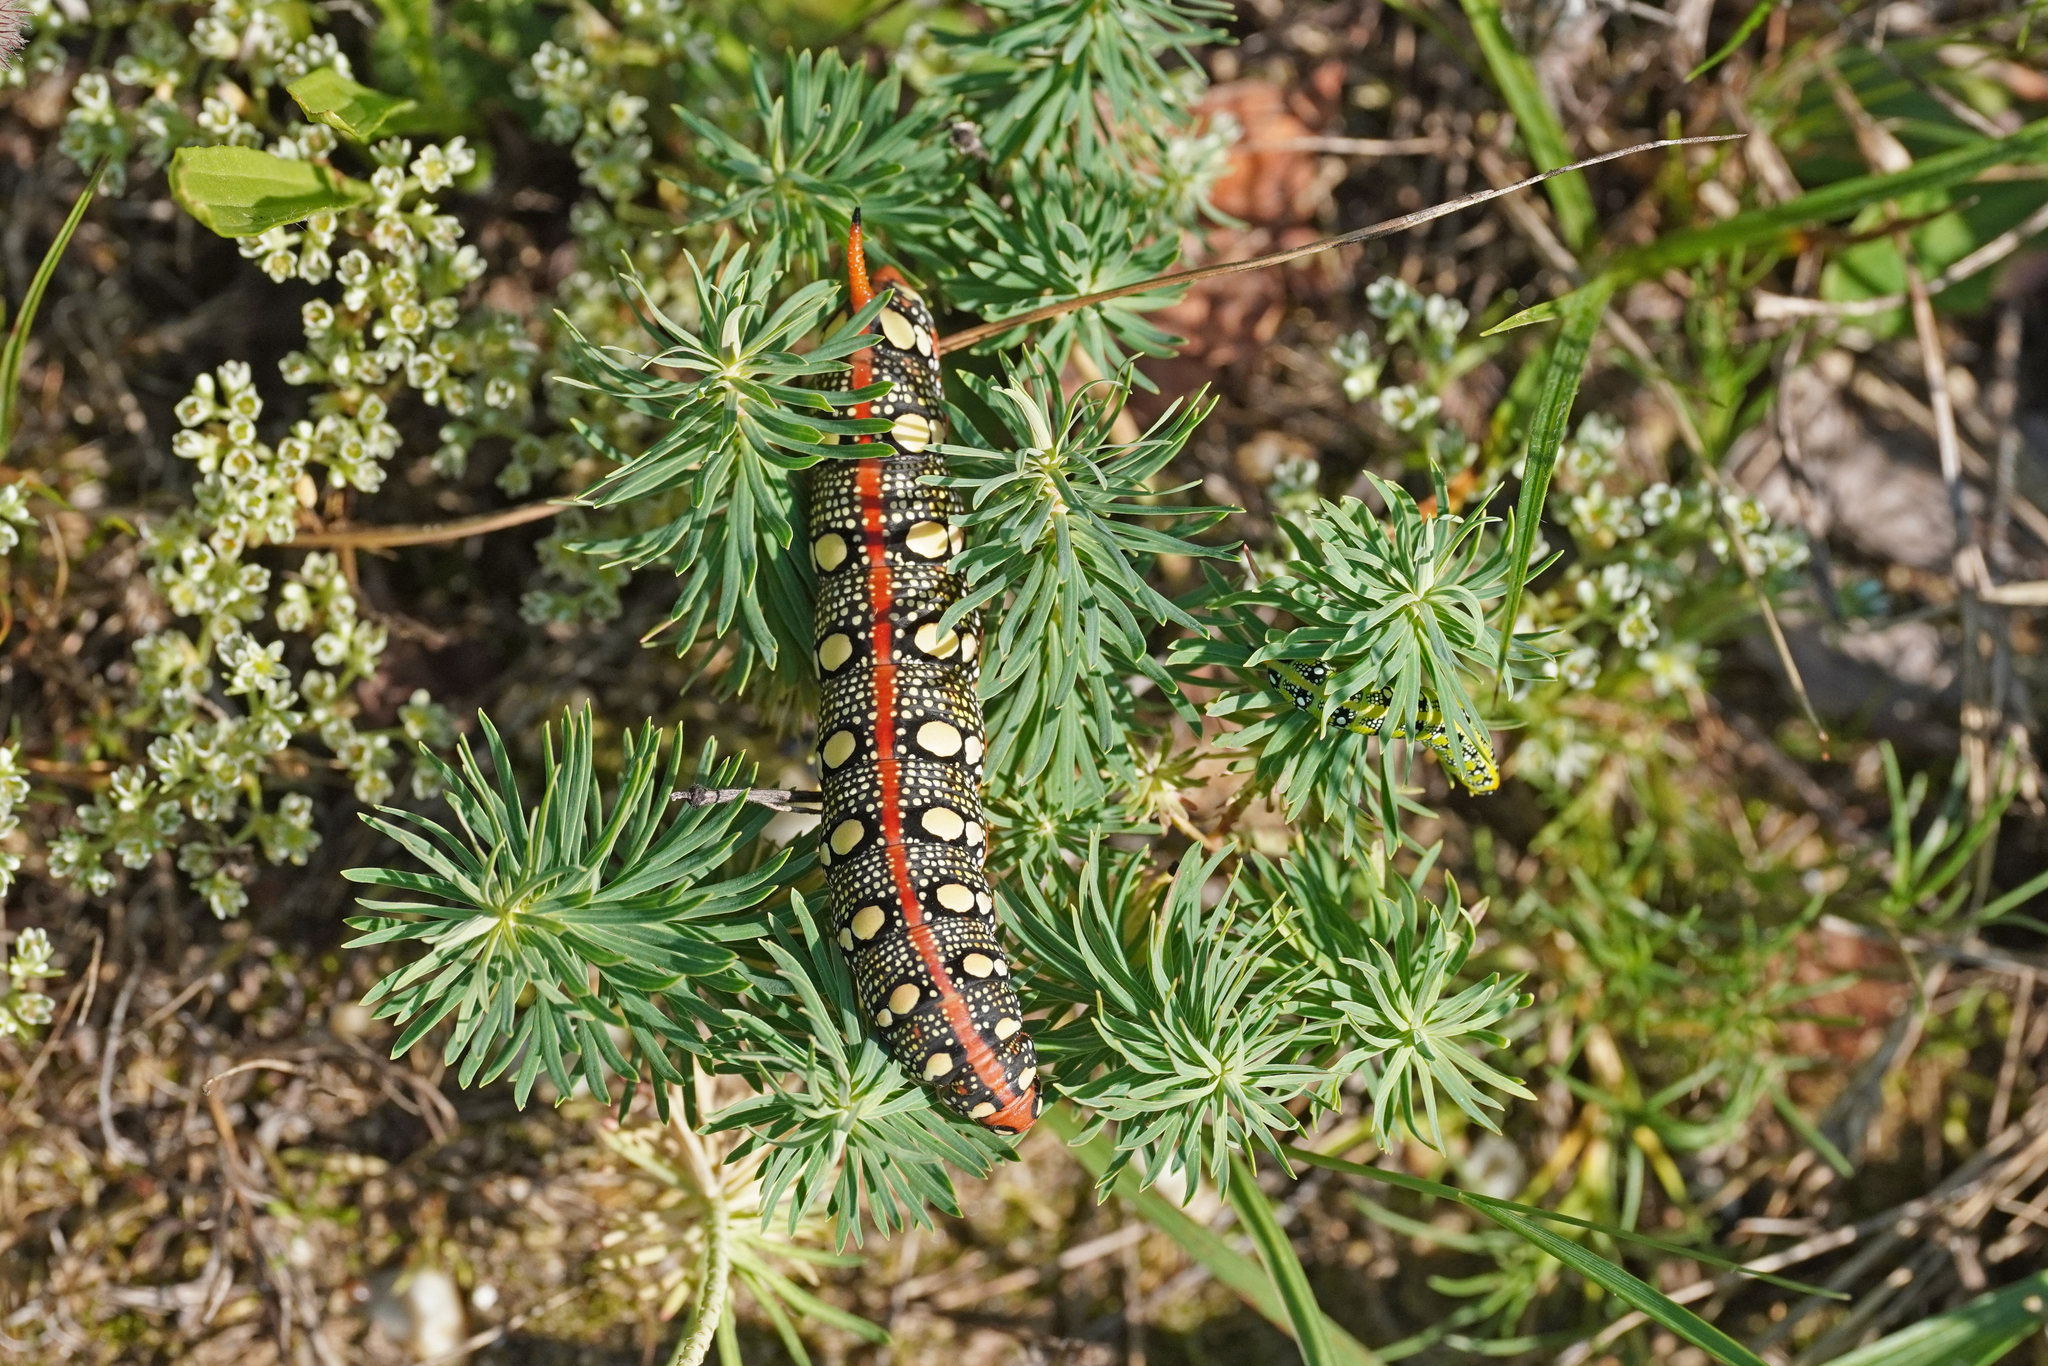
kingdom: Animalia
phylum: Arthropoda
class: Insecta
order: Lepidoptera
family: Sphingidae
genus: Hyles
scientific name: Hyles euphorbiae
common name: Spurge hawk-moth
